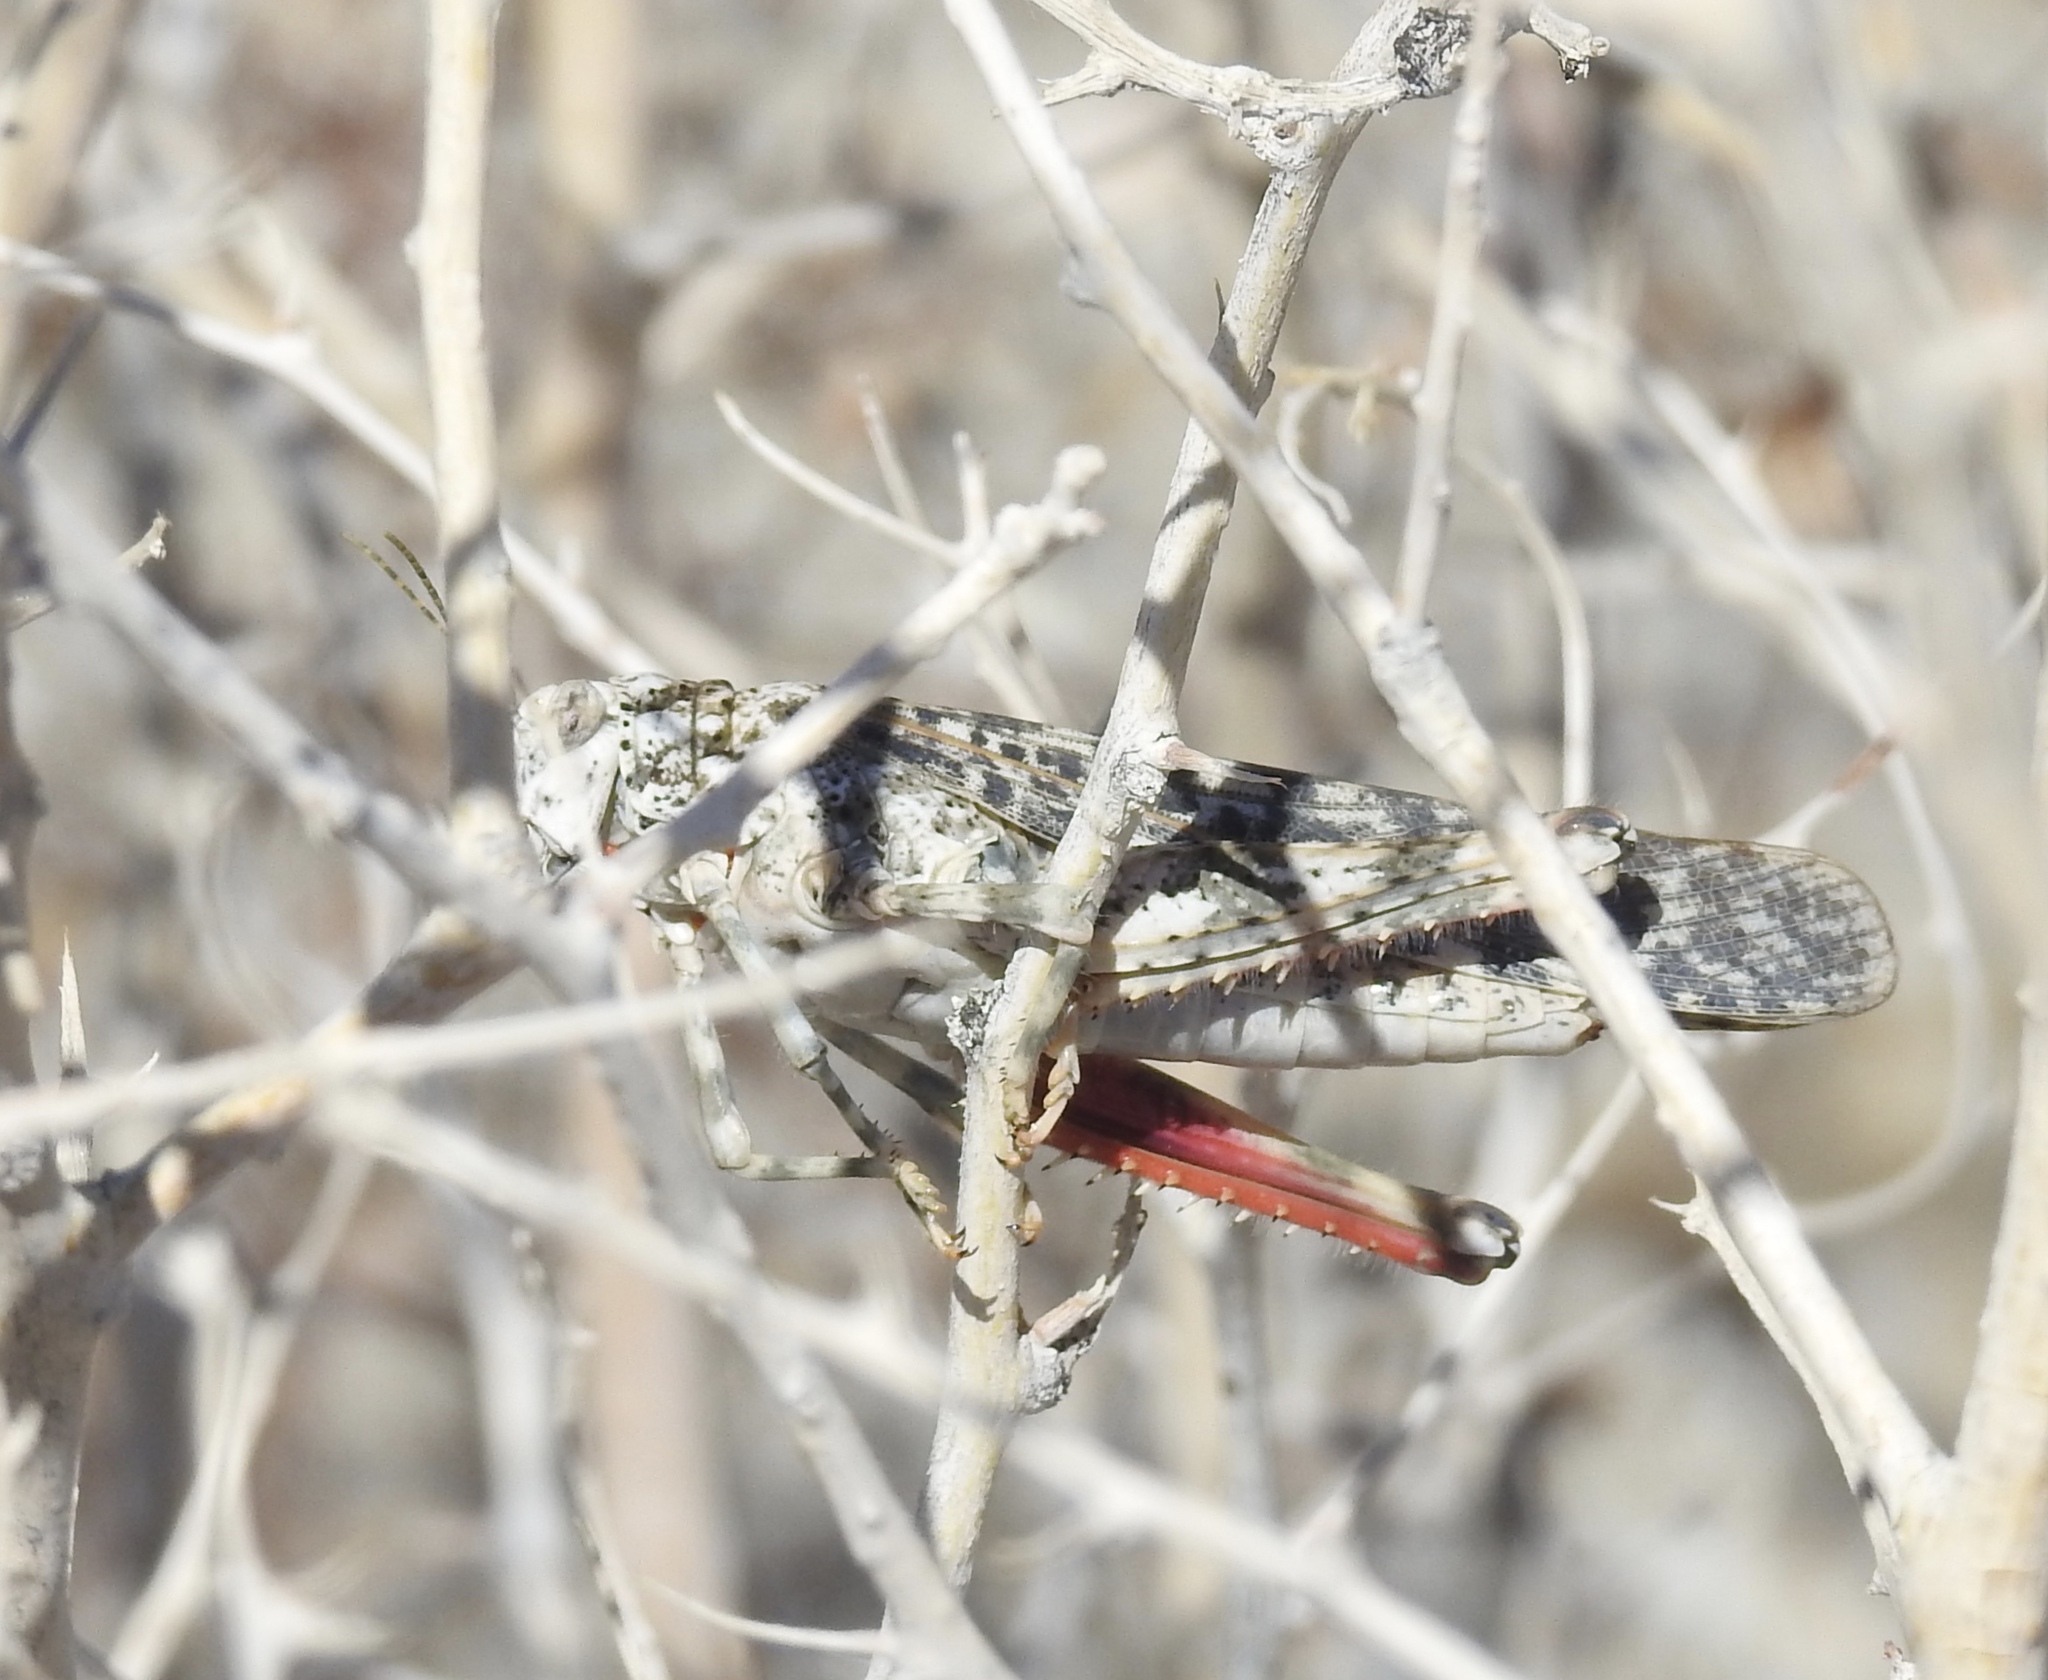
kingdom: Animalia
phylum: Arthropoda
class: Insecta
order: Orthoptera
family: Romaleidae
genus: Tytthotyle
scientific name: Tytthotyle maculata
